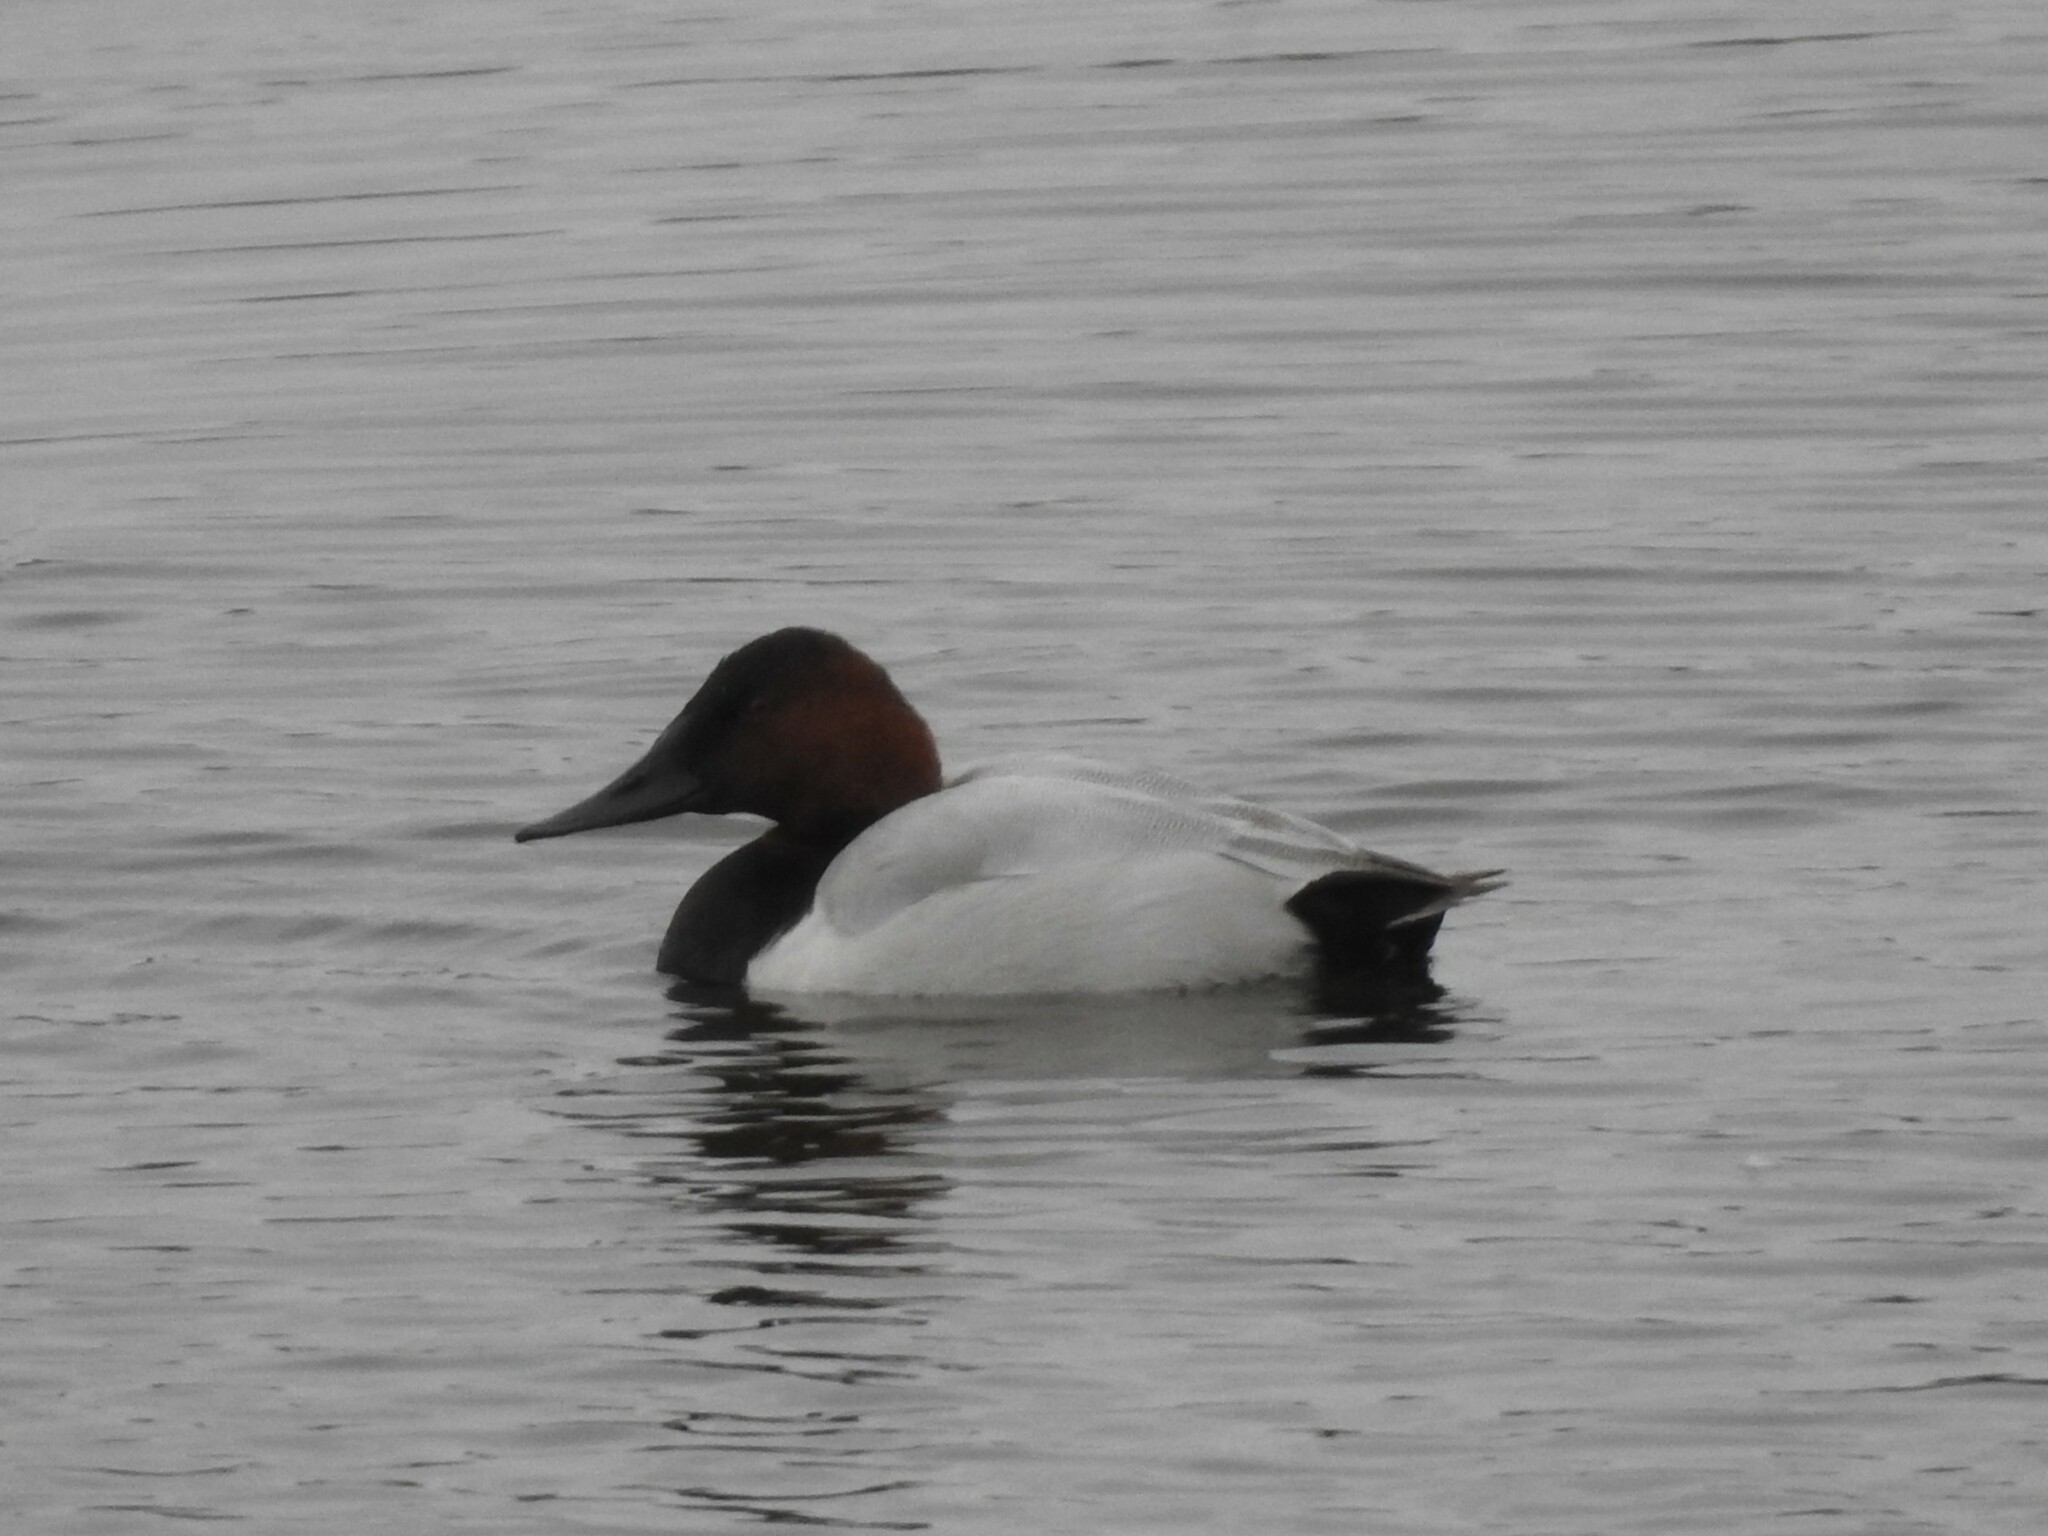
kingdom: Animalia
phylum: Chordata
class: Aves
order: Anseriformes
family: Anatidae
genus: Aythya
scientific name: Aythya valisineria
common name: Canvasback
